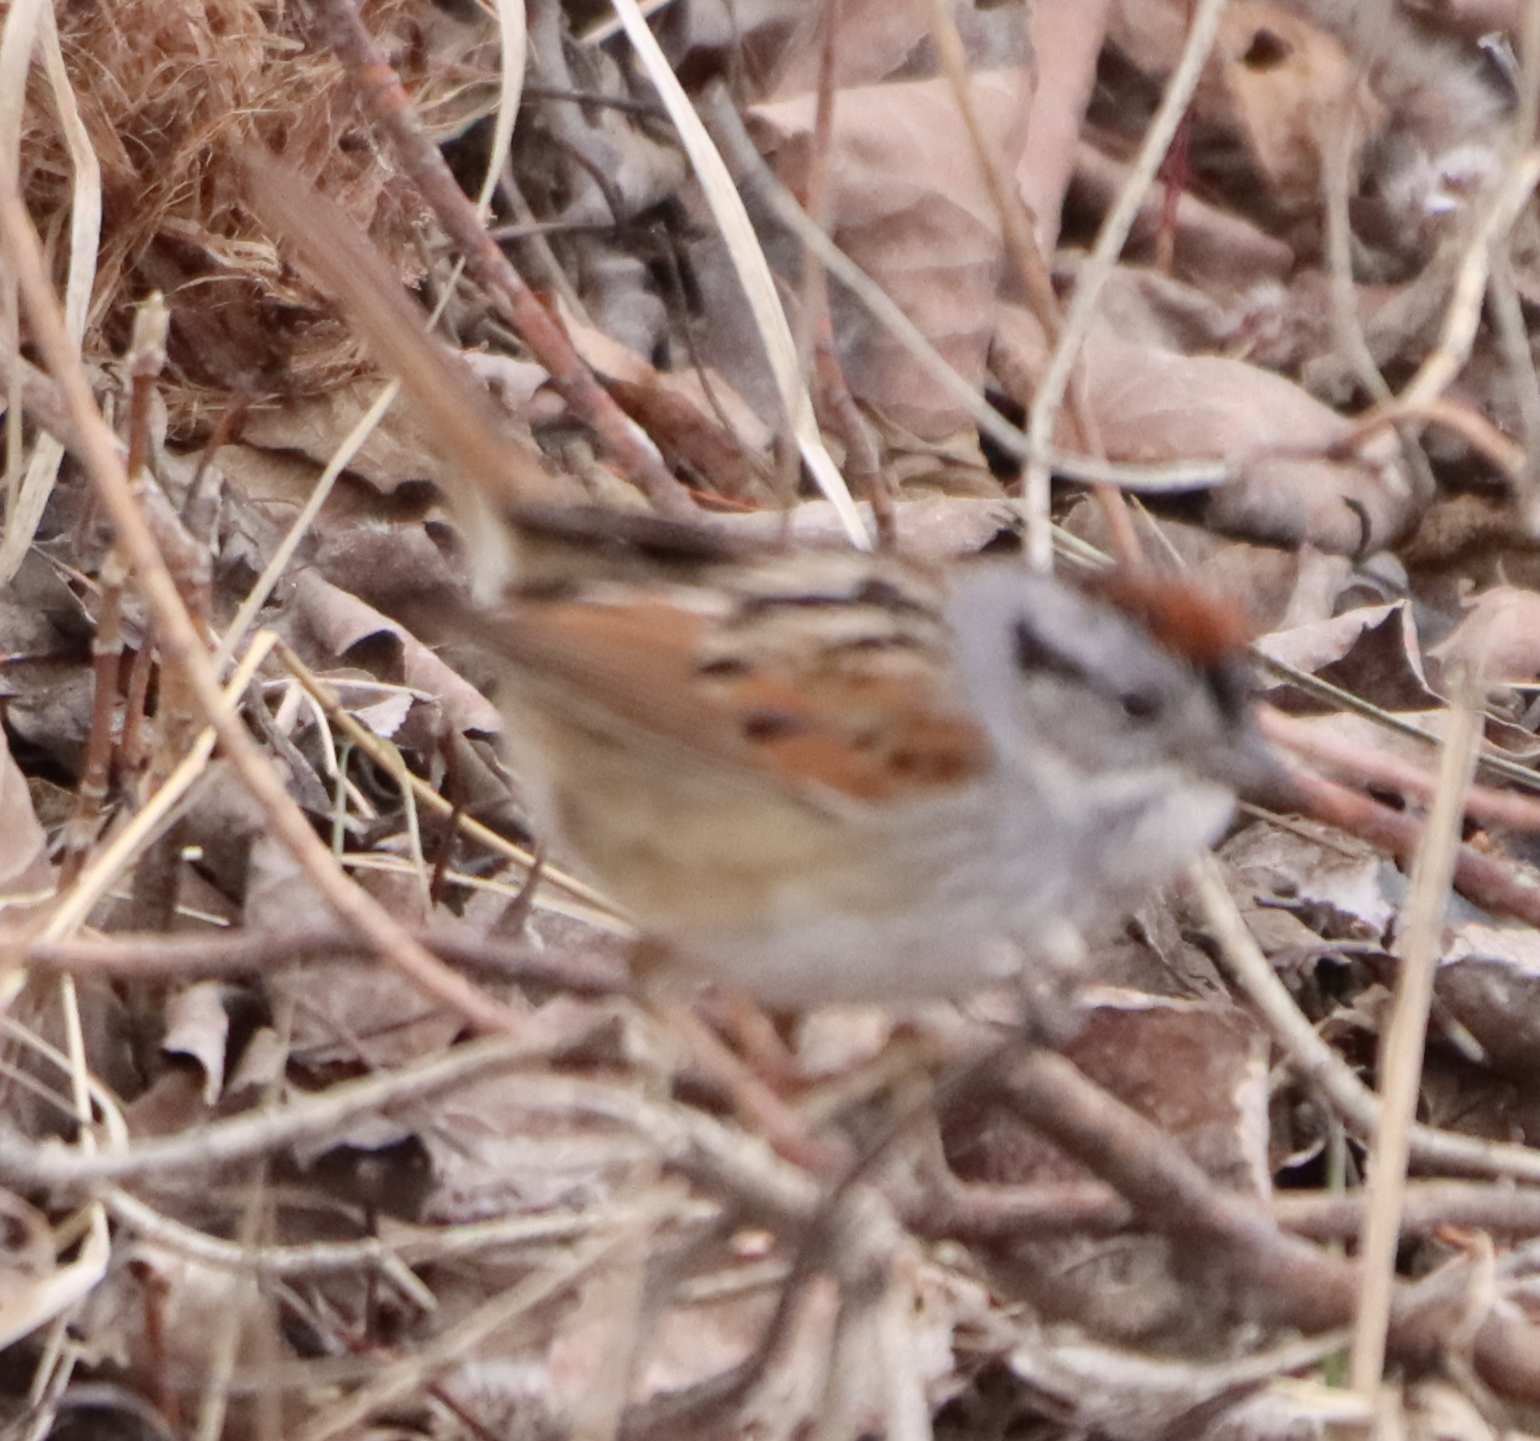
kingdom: Animalia
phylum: Chordata
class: Aves
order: Passeriformes
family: Passerellidae
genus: Melospiza
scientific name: Melospiza georgiana
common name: Swamp sparrow
